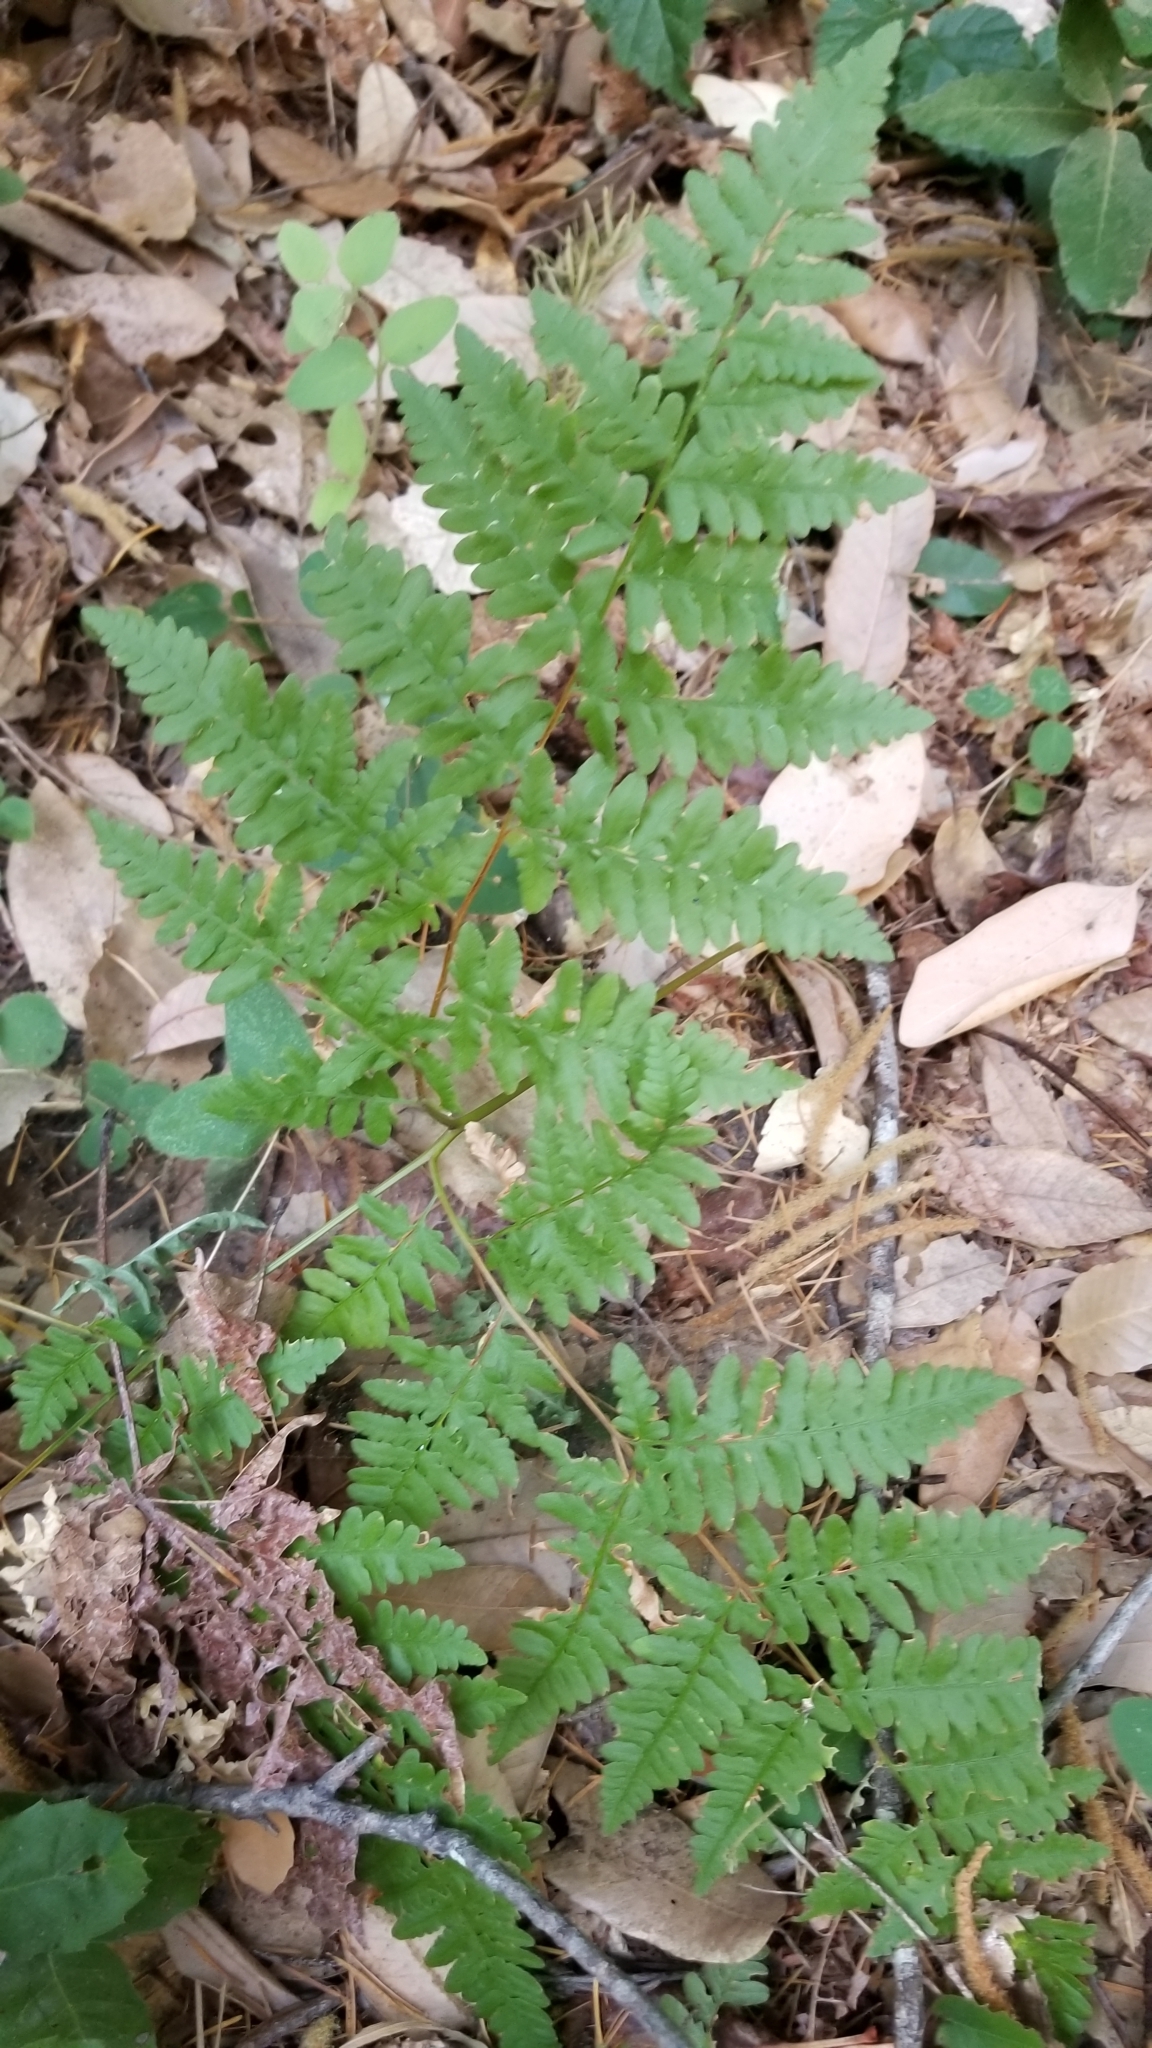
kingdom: Plantae
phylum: Tracheophyta
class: Polypodiopsida
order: Polypodiales
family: Dennstaedtiaceae
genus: Pteridium
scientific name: Pteridium aquilinum
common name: Bracken
